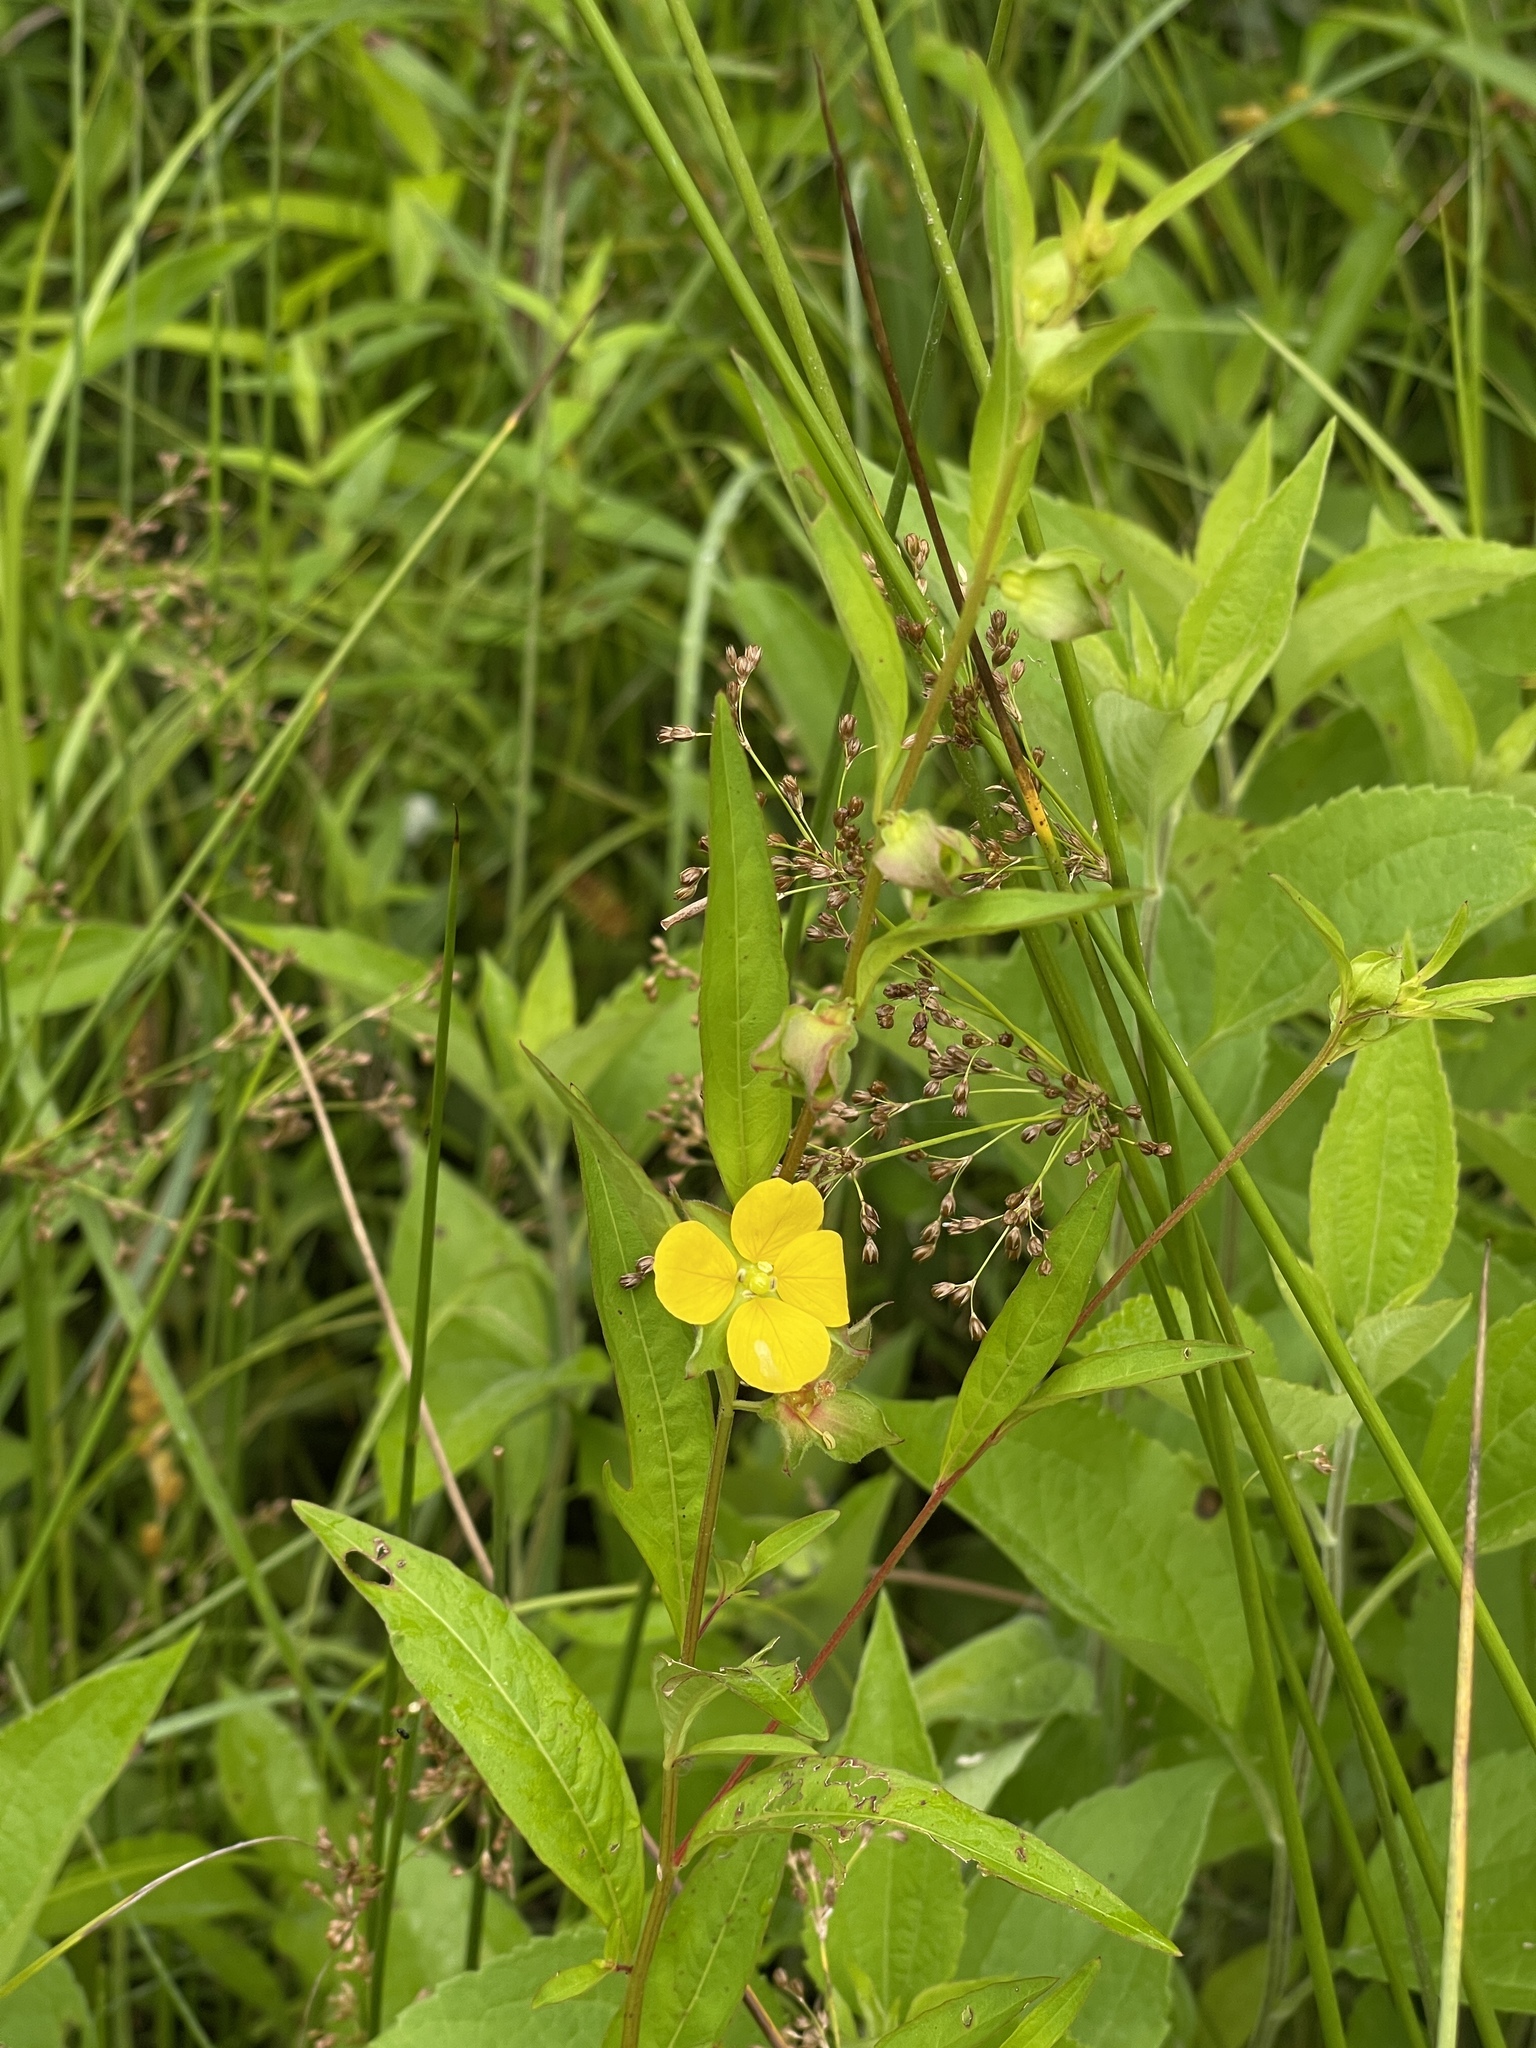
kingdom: Plantae
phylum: Tracheophyta
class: Magnoliopsida
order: Myrtales
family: Onagraceae
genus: Ludwigia
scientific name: Ludwigia alternifolia
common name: Rattlebox
